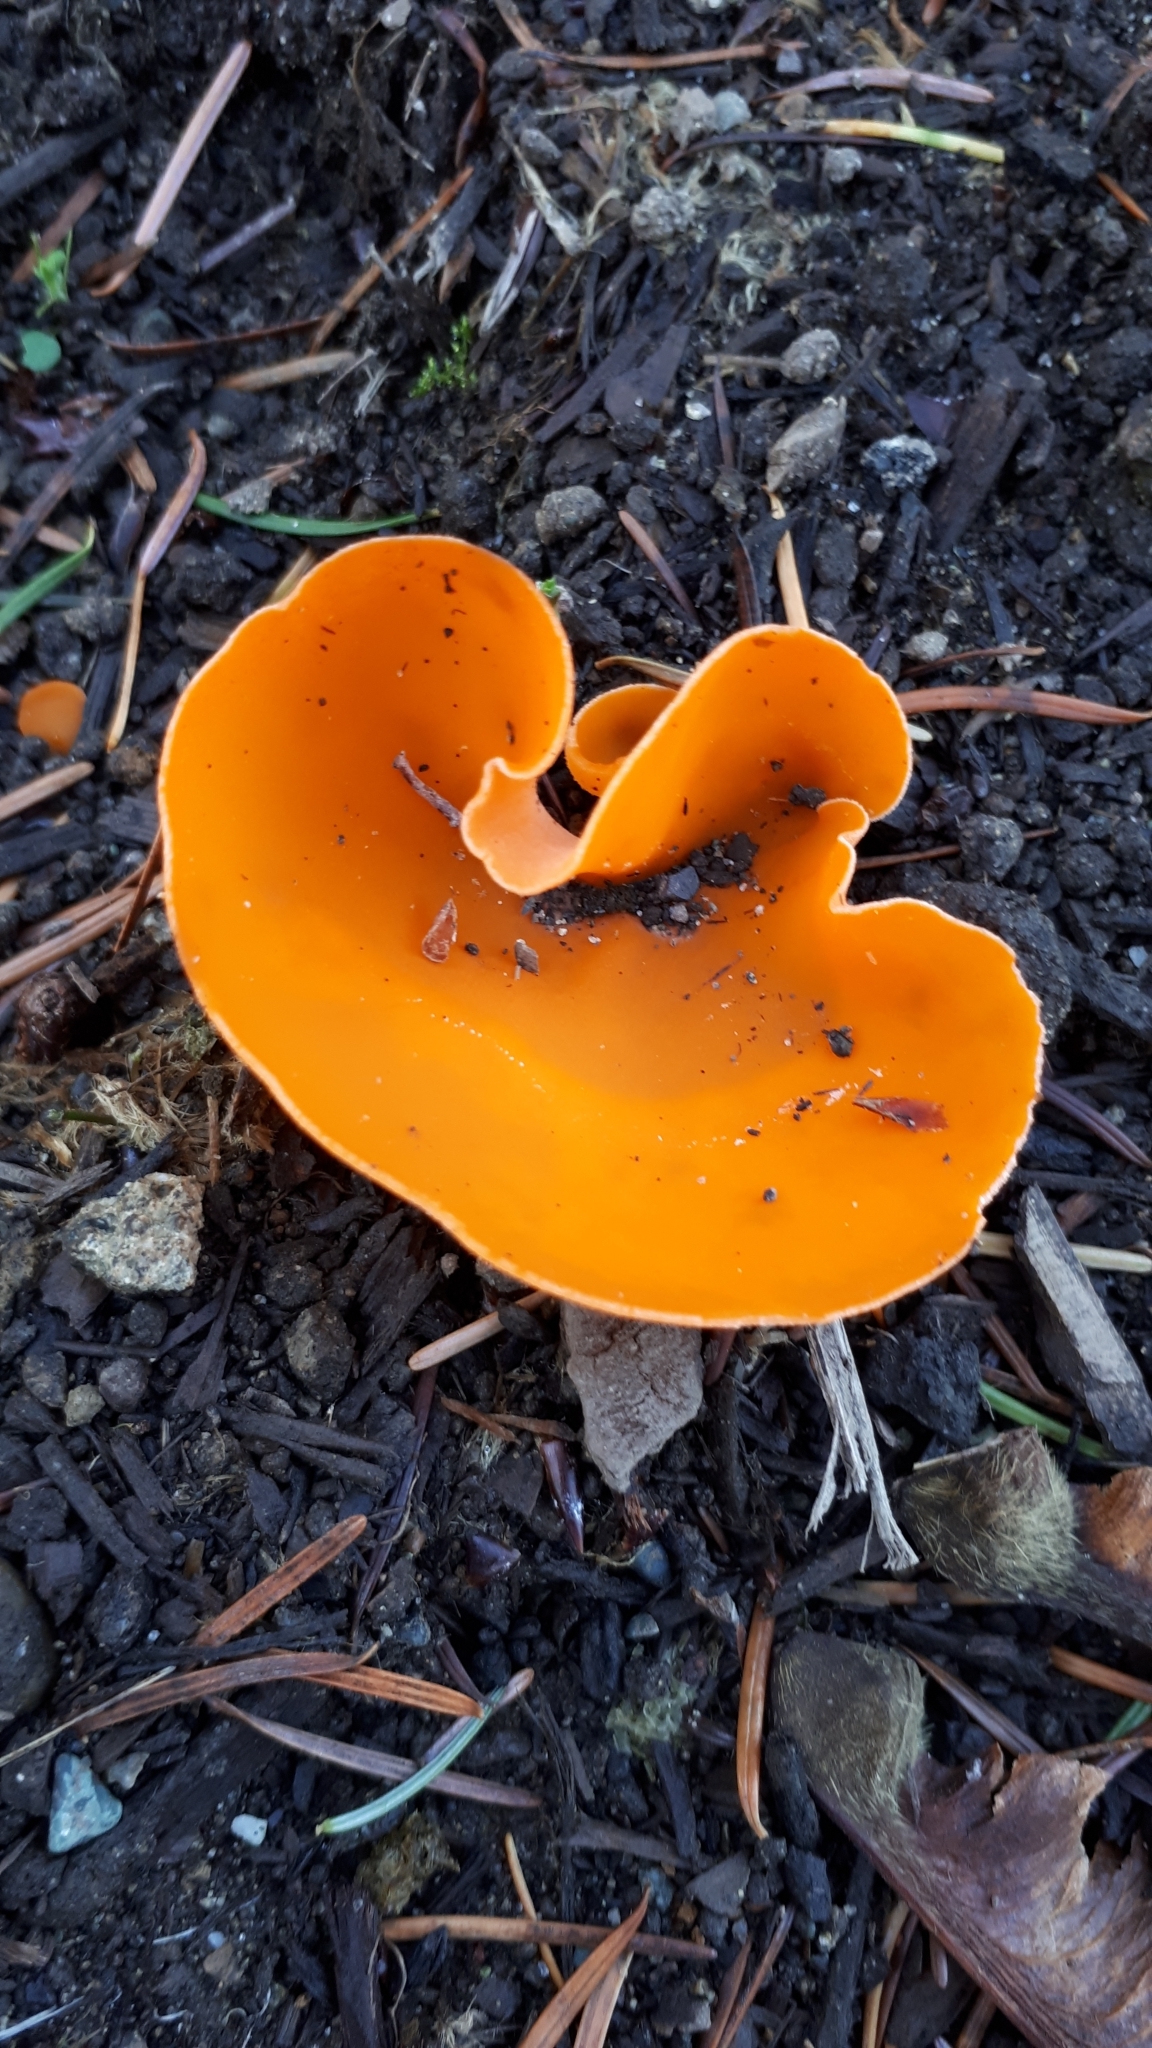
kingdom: Fungi
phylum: Ascomycota
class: Pezizomycetes
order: Pezizales
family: Pyronemataceae
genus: Aleuria
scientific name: Aleuria aurantia
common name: Orange peel fungus
